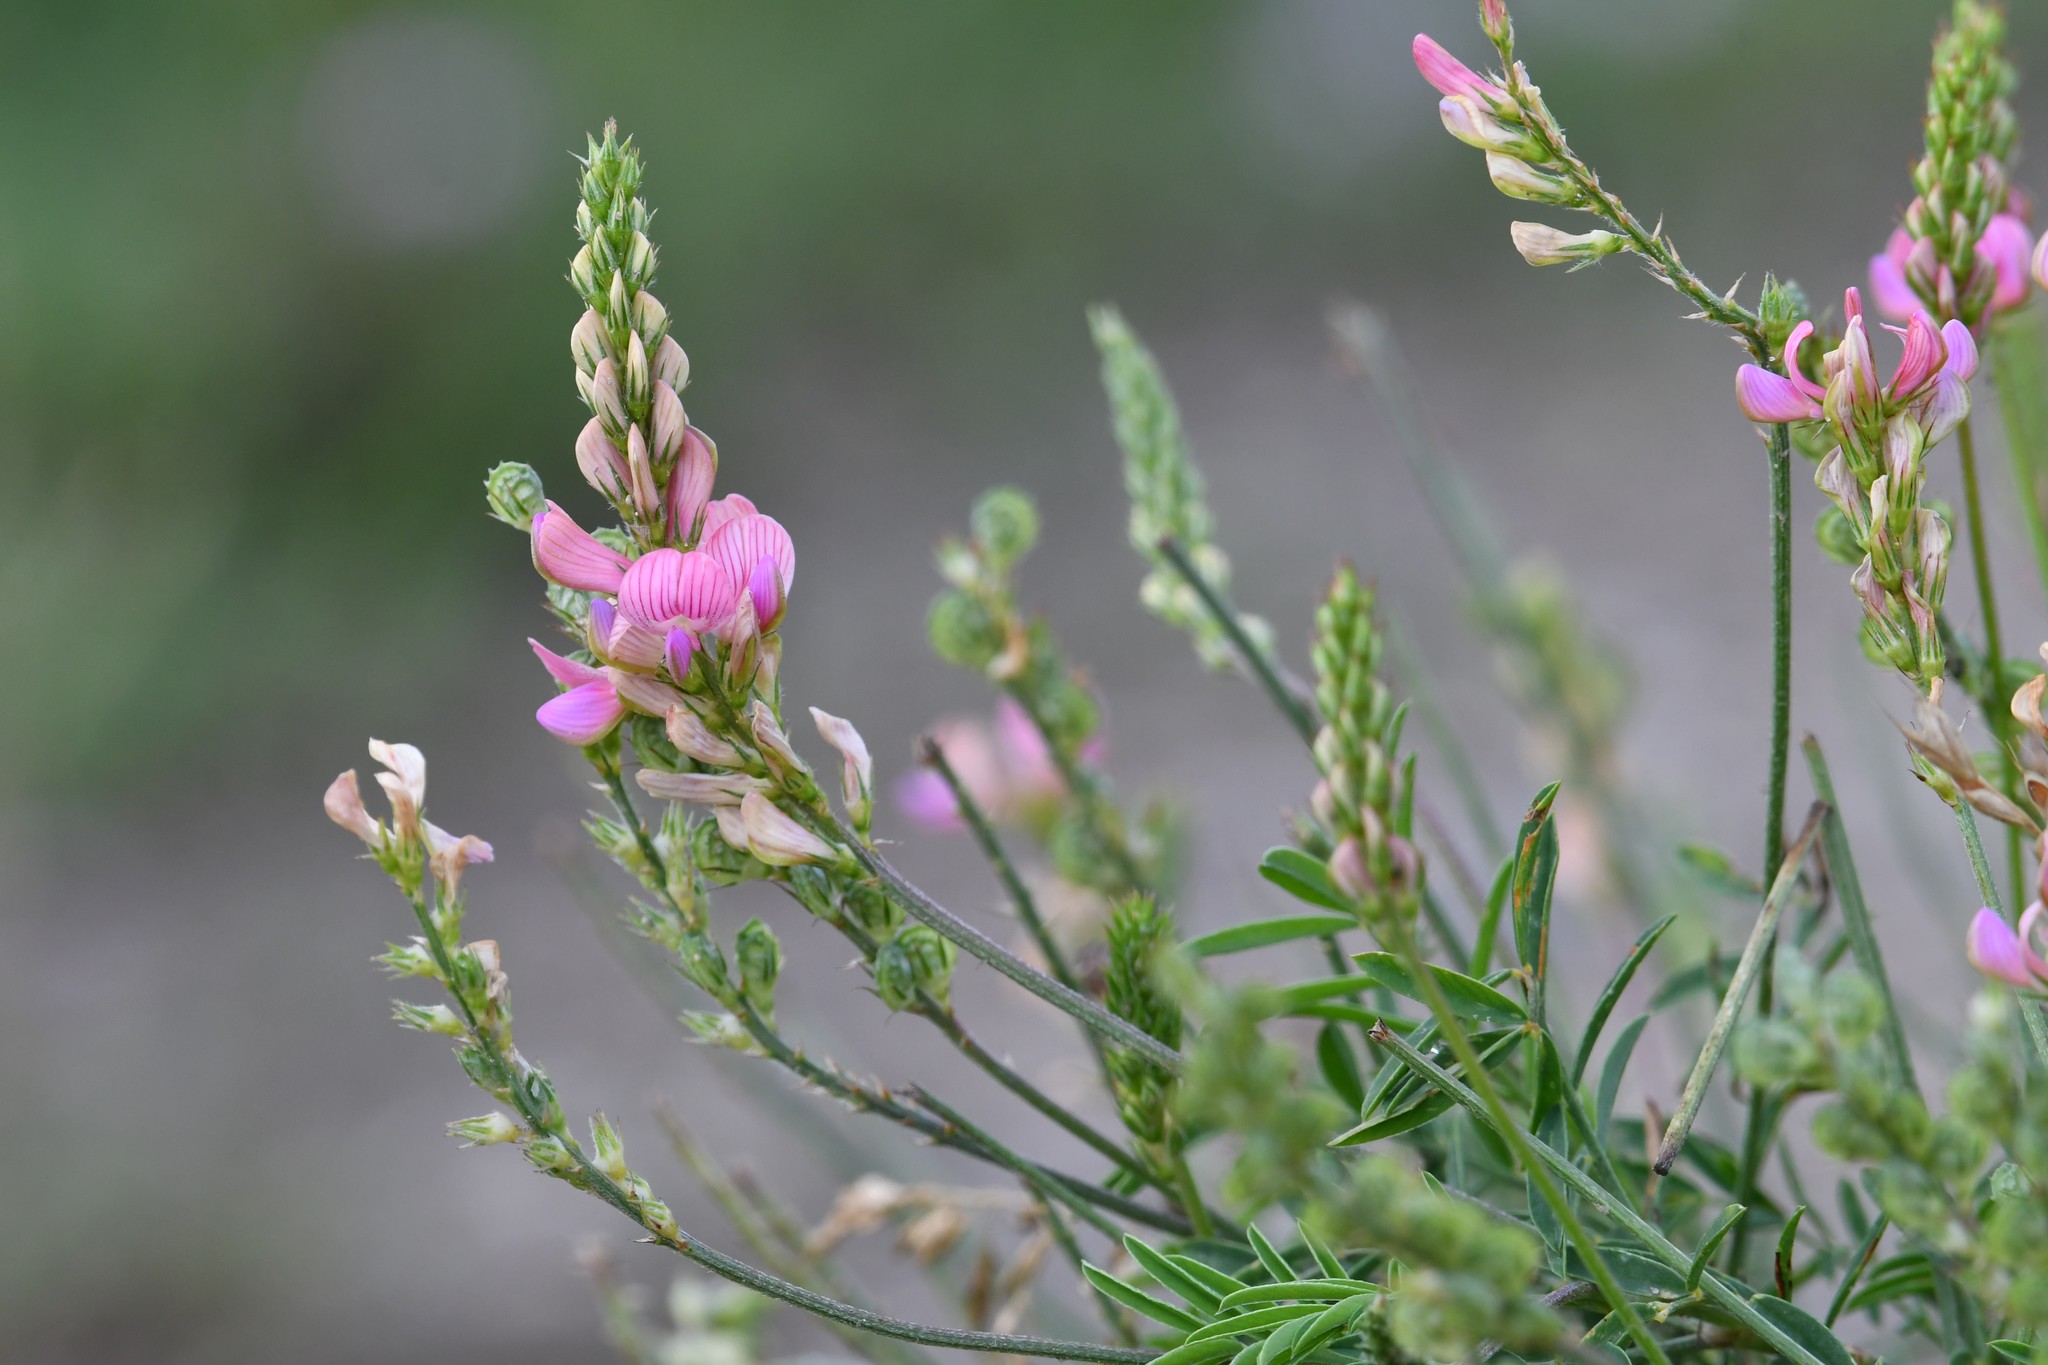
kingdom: Plantae
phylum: Tracheophyta
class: Magnoliopsida
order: Fabales
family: Fabaceae
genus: Onobrychis
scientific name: Onobrychis viciifolia
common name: Sainfoin
